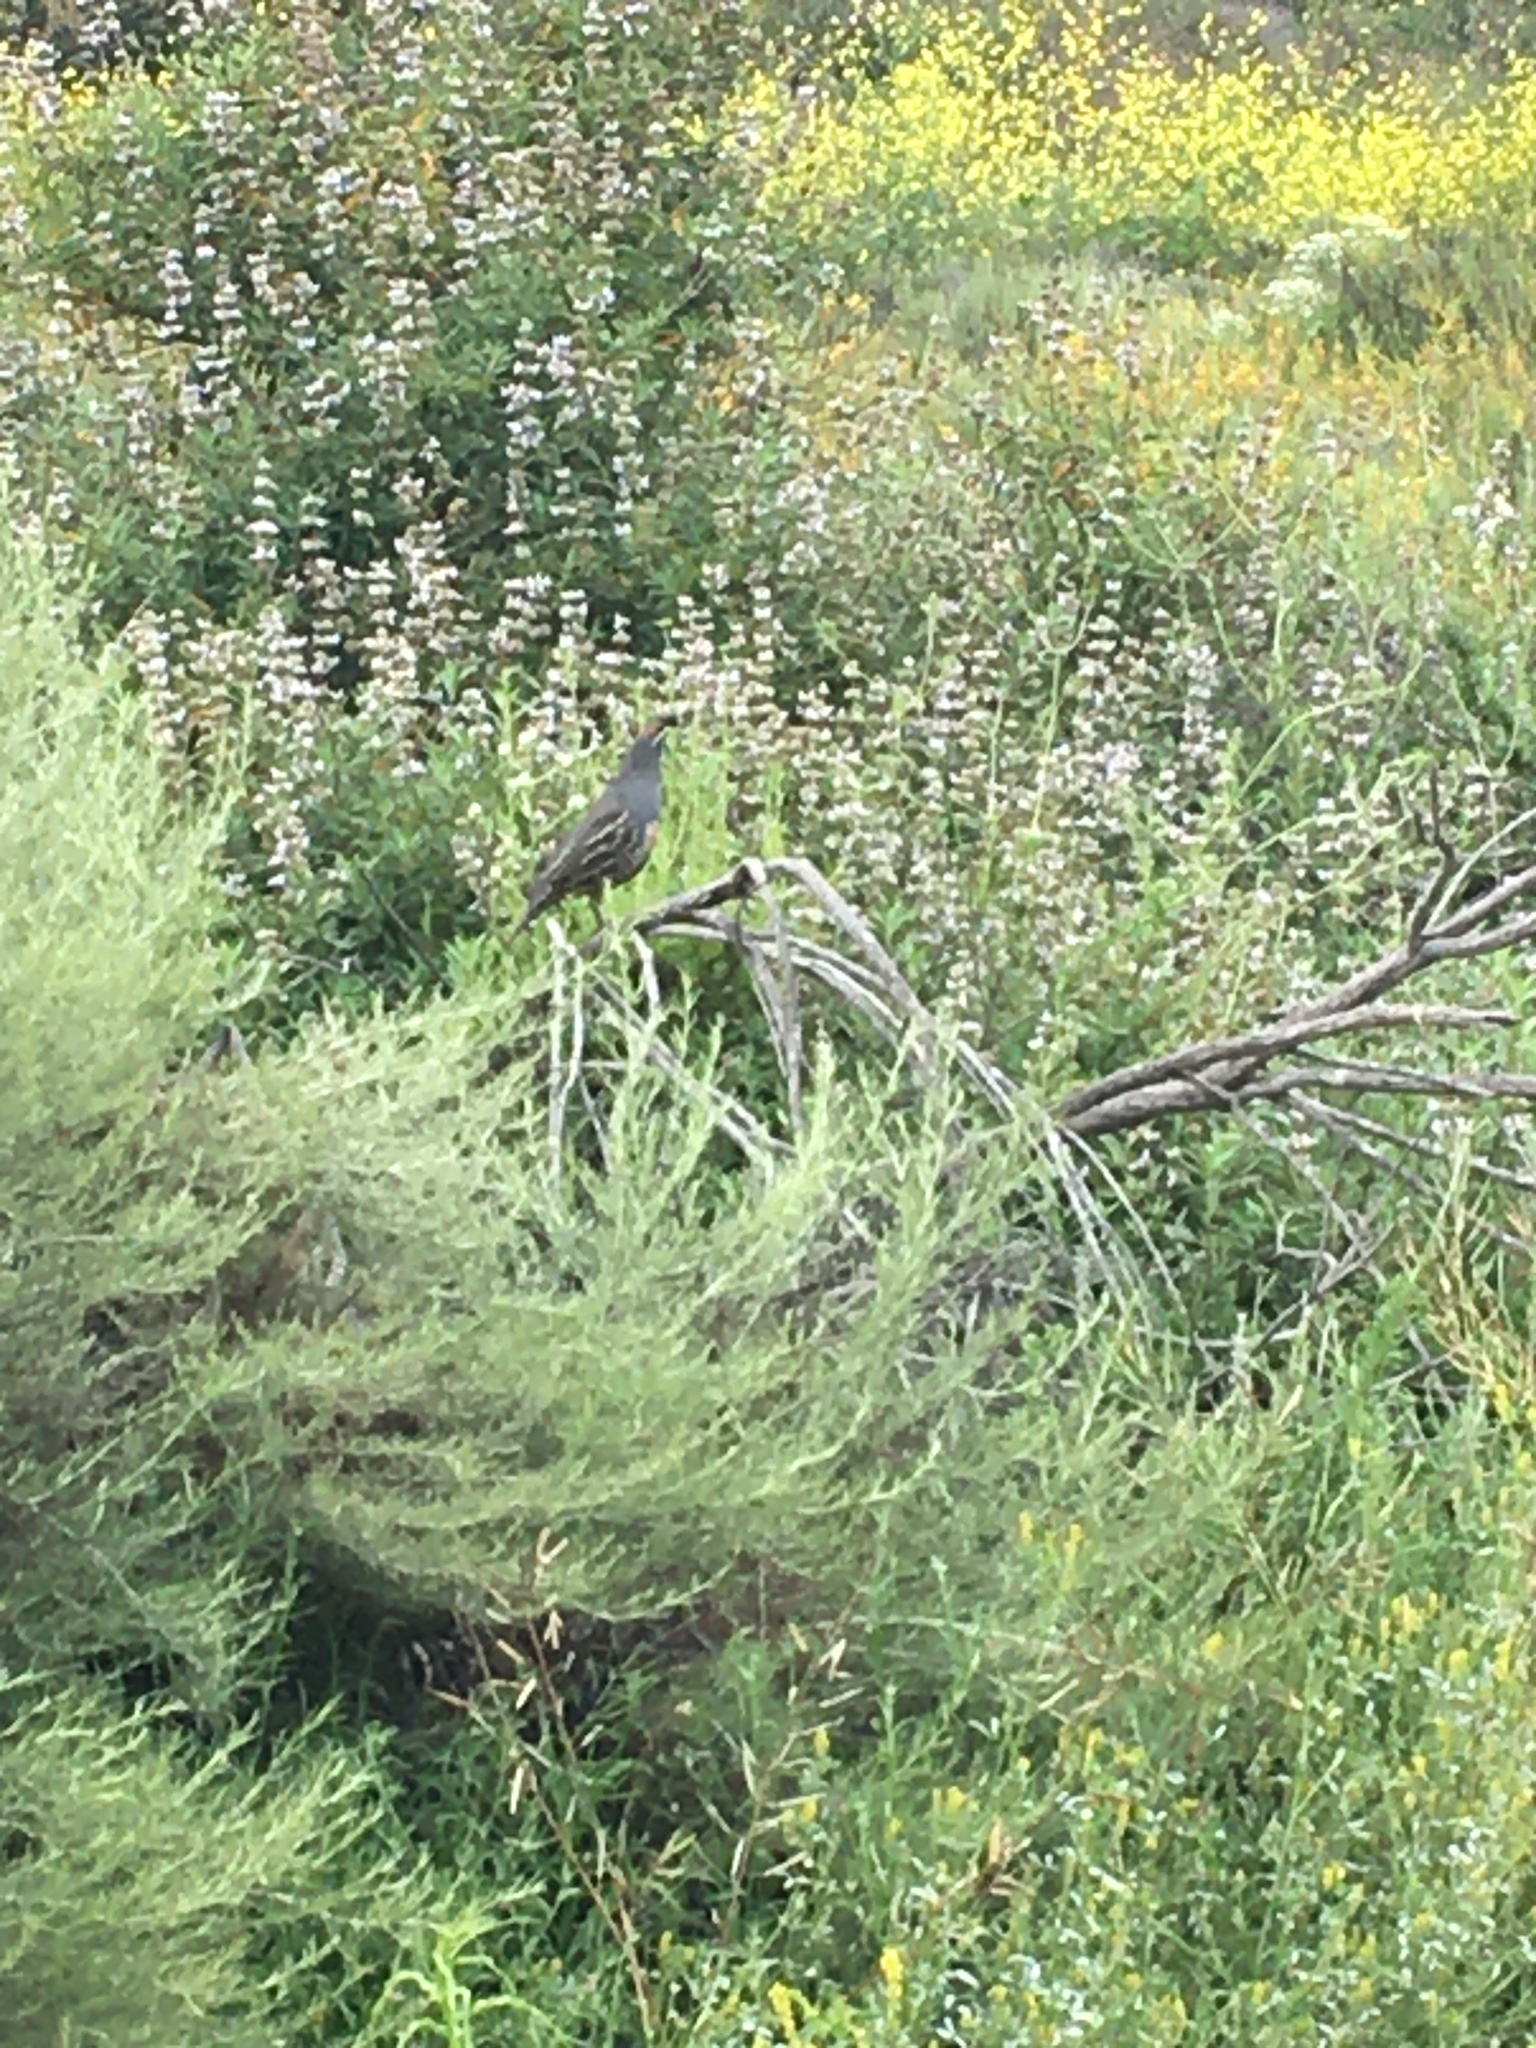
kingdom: Animalia
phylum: Chordata
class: Aves
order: Galliformes
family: Odontophoridae
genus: Callipepla
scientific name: Callipepla californica
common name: California quail
